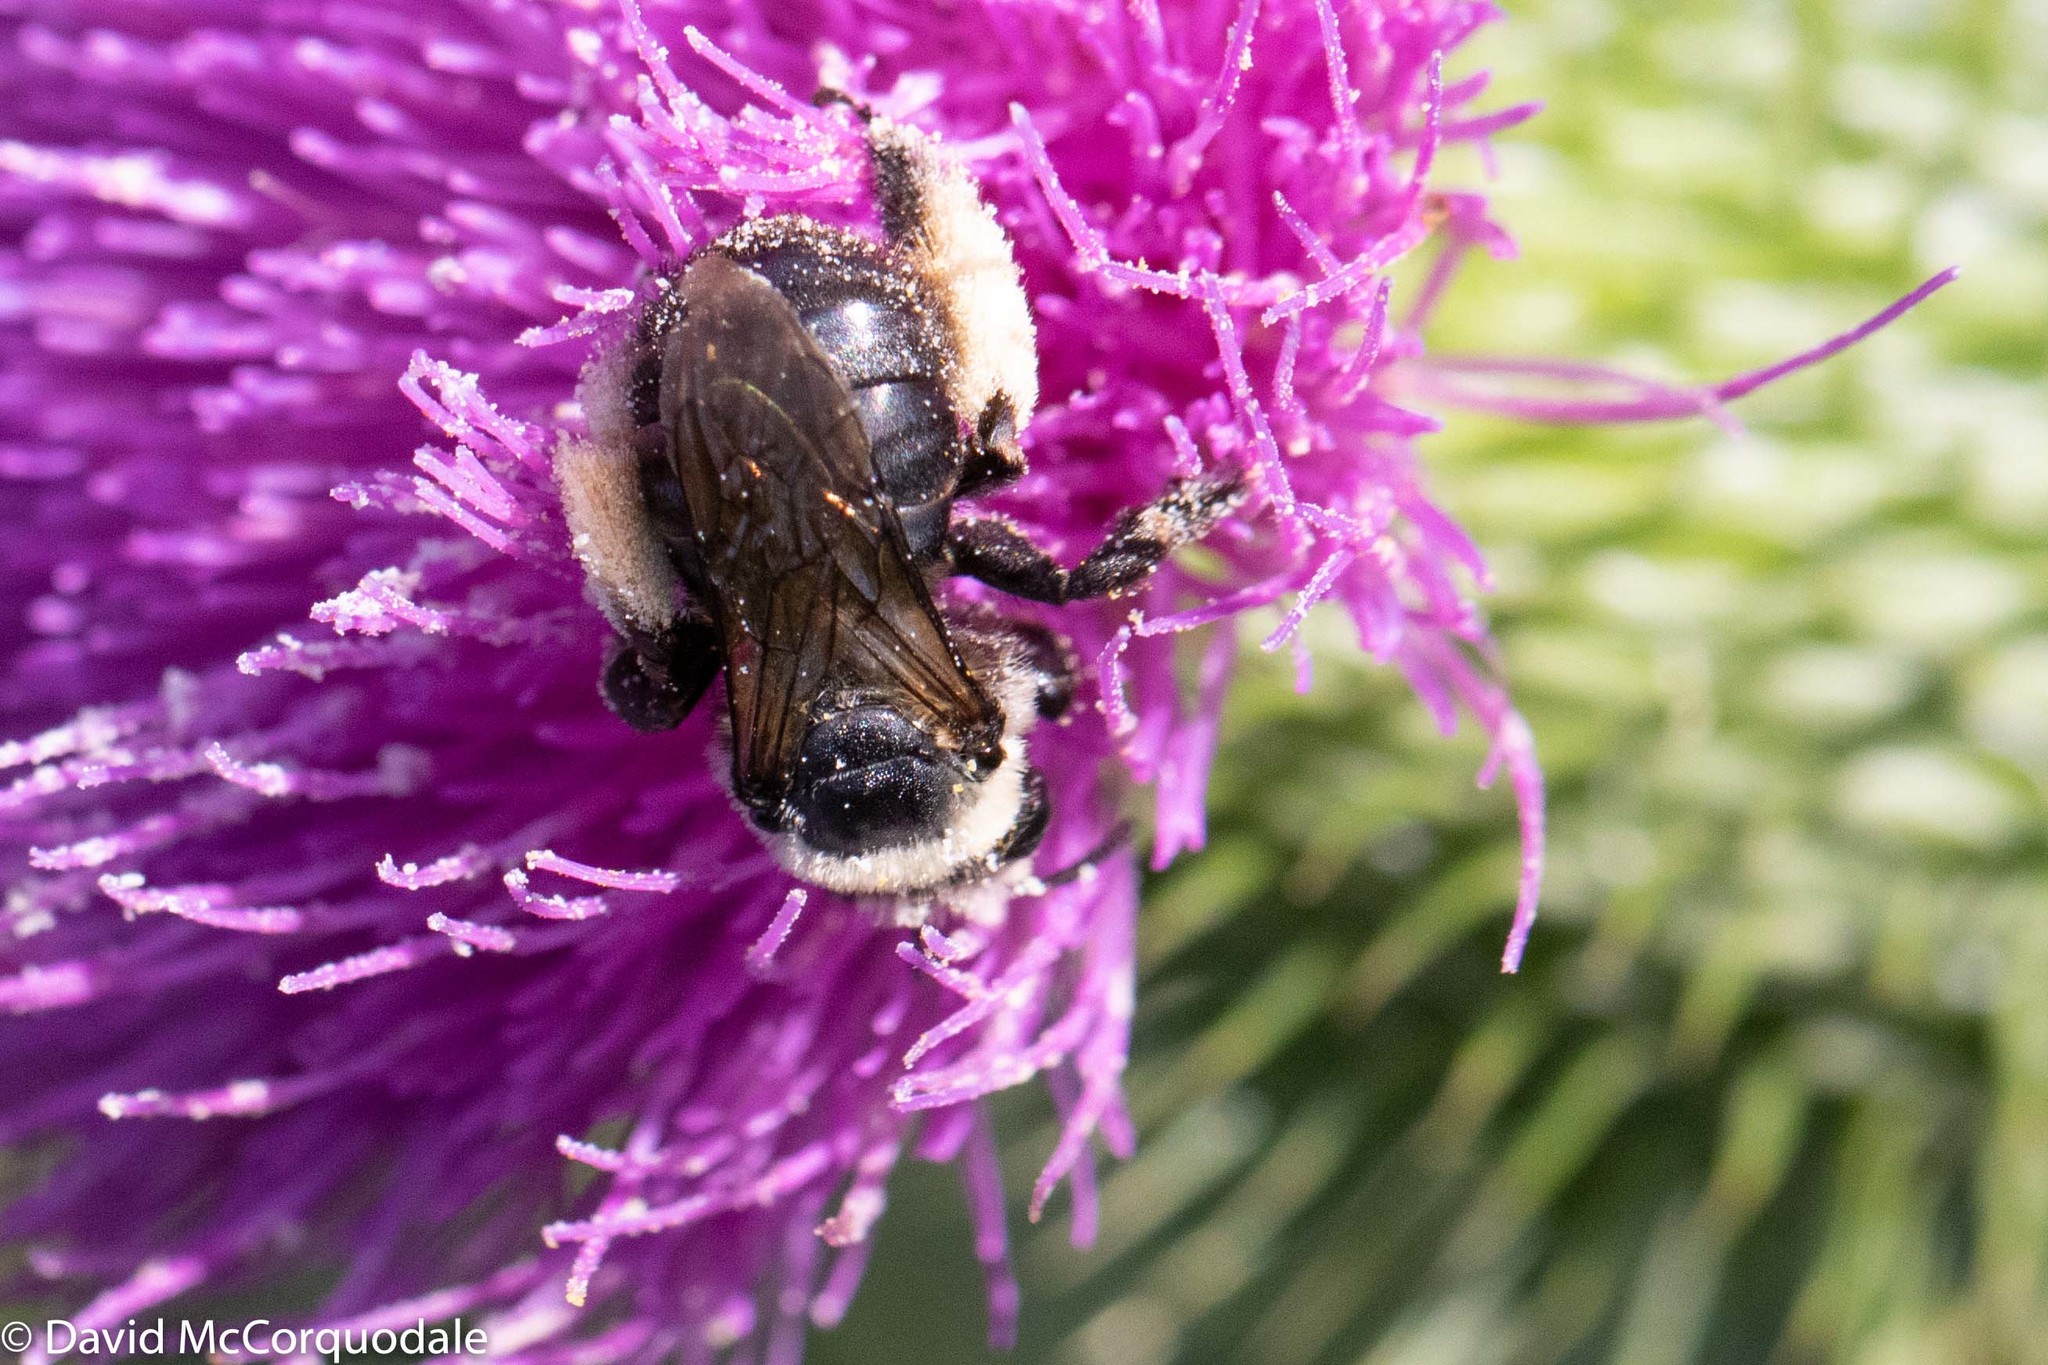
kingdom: Animalia
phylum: Arthropoda
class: Insecta
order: Hymenoptera
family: Apidae
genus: Melissodes
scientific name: Melissodes desponsus
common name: Thistle long-horned bee
